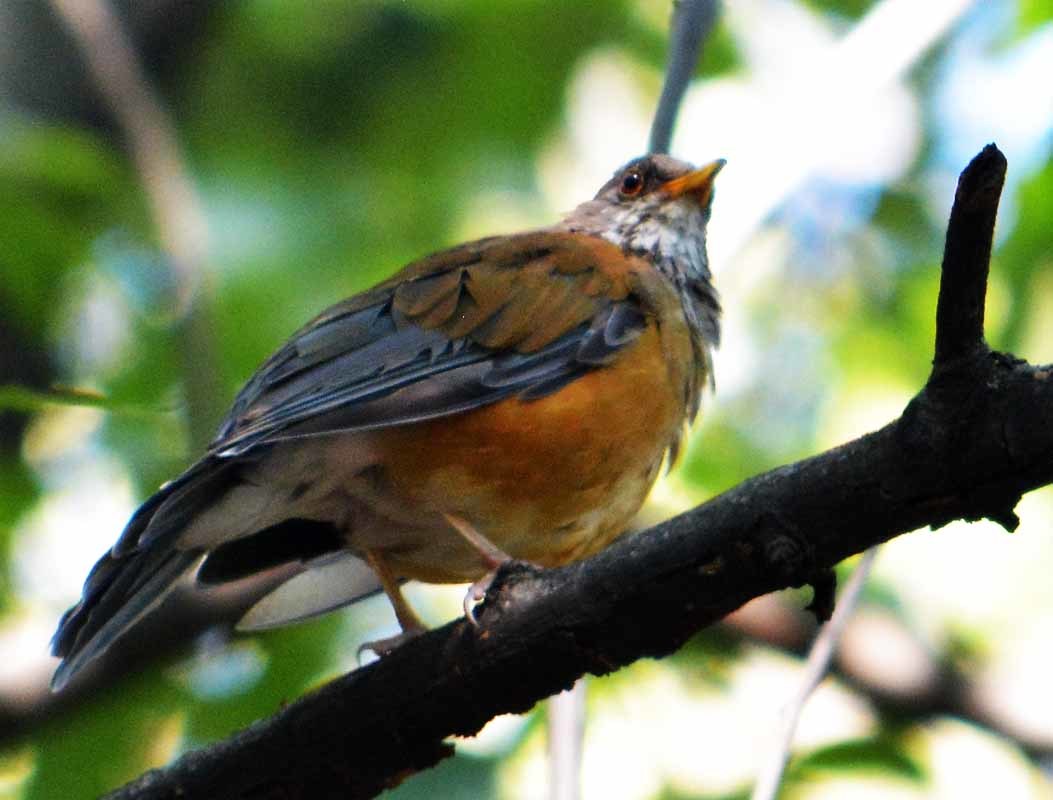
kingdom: Animalia
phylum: Chordata
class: Aves
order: Passeriformes
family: Turdidae
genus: Turdus
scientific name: Turdus rufopalliatus
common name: Rufous-backed robin
